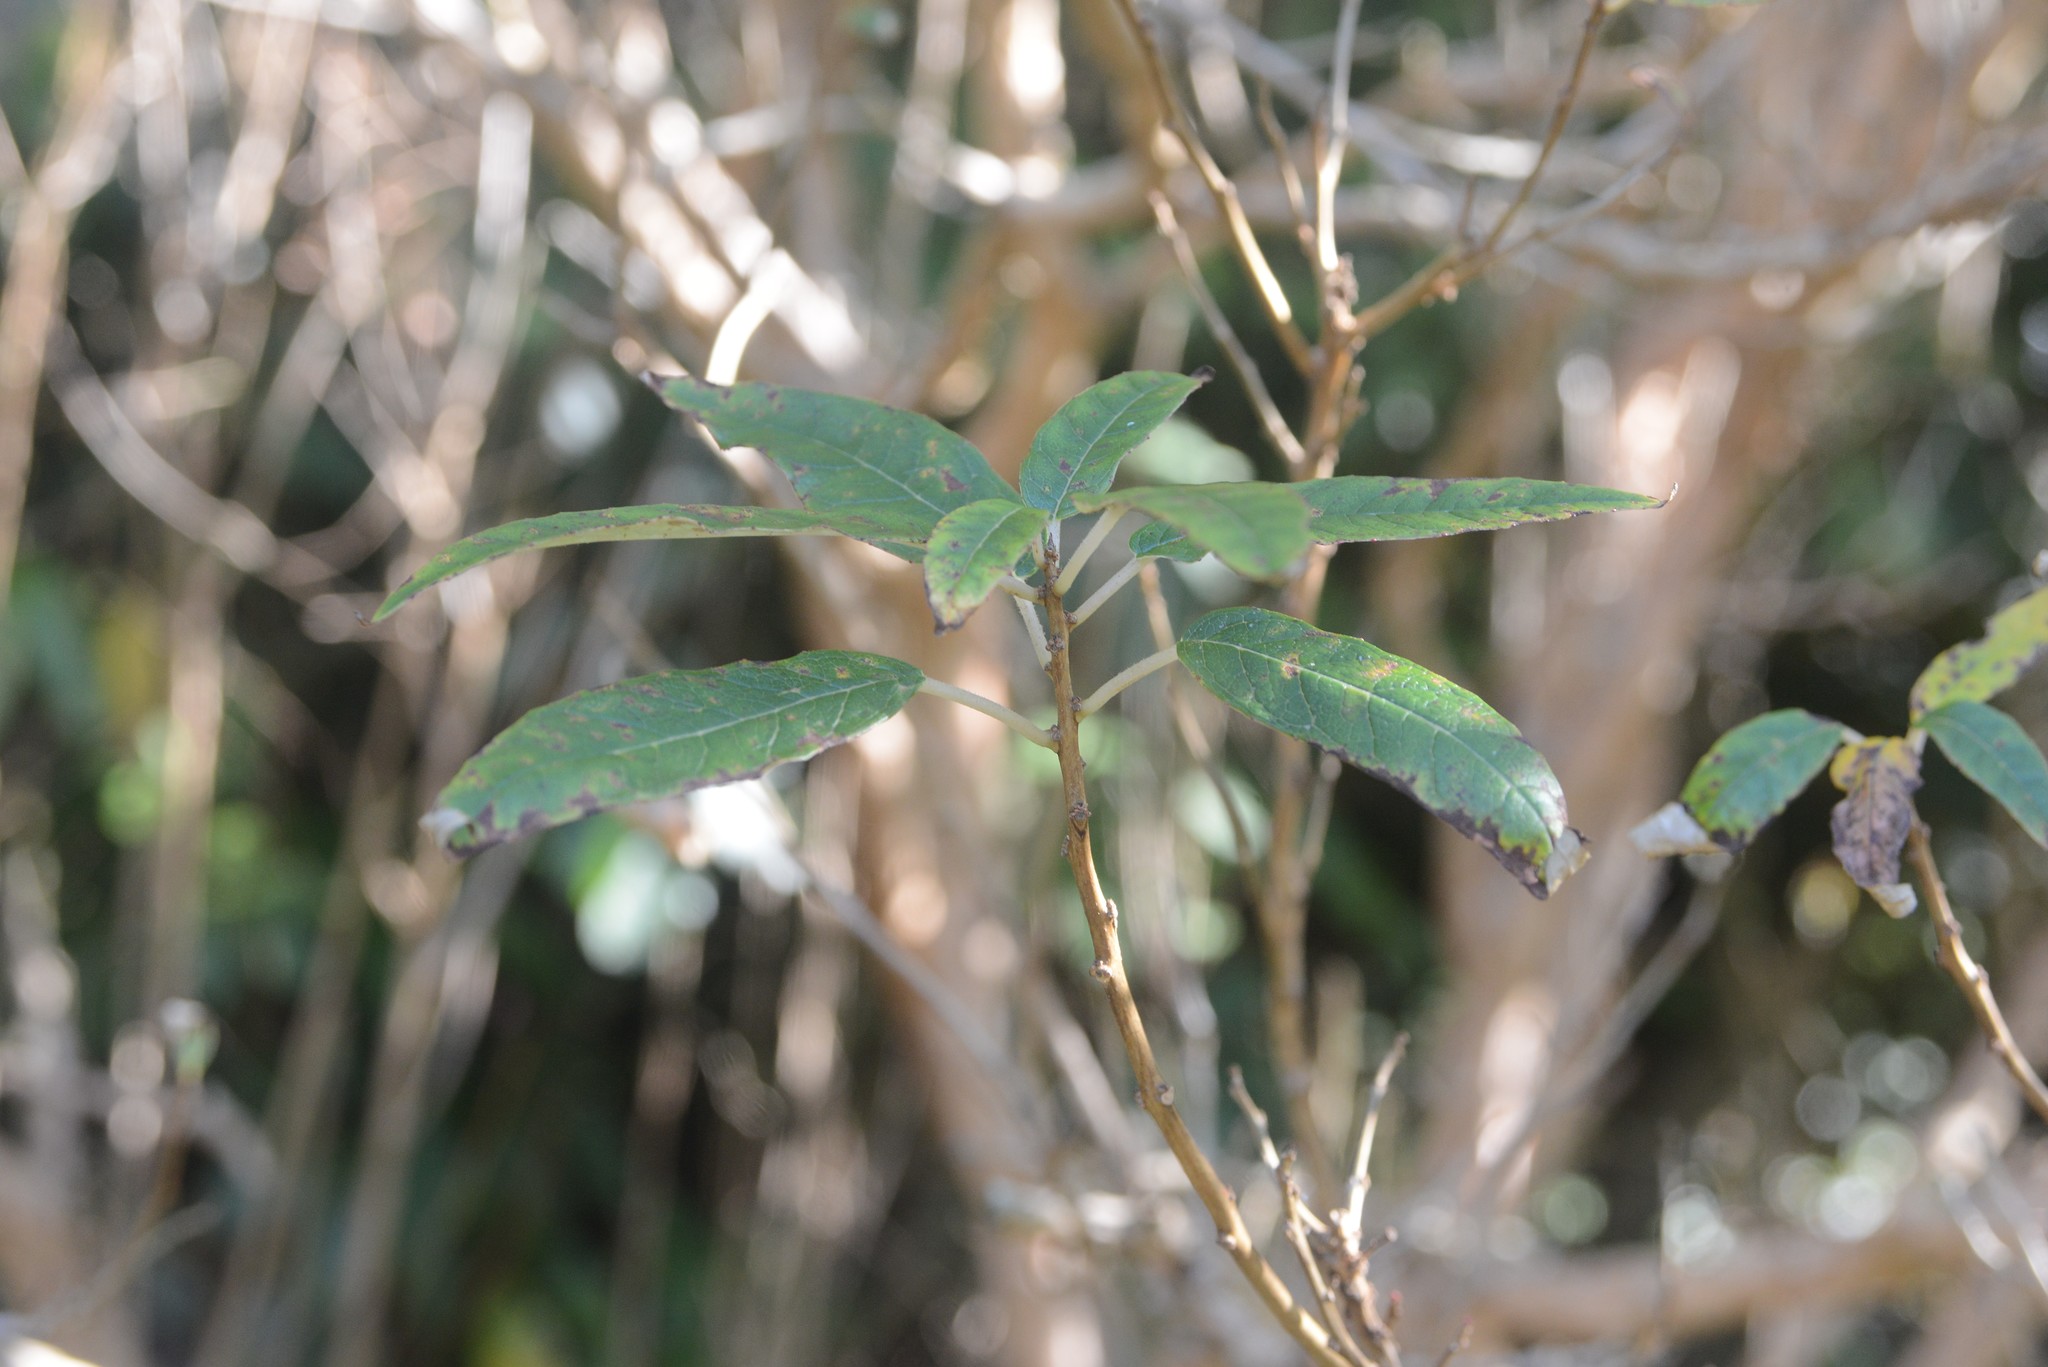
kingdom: Plantae
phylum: Tracheophyta
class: Magnoliopsida
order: Myrtales
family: Onagraceae
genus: Fuchsia
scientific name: Fuchsia excorticata
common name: Tree fuchsia
